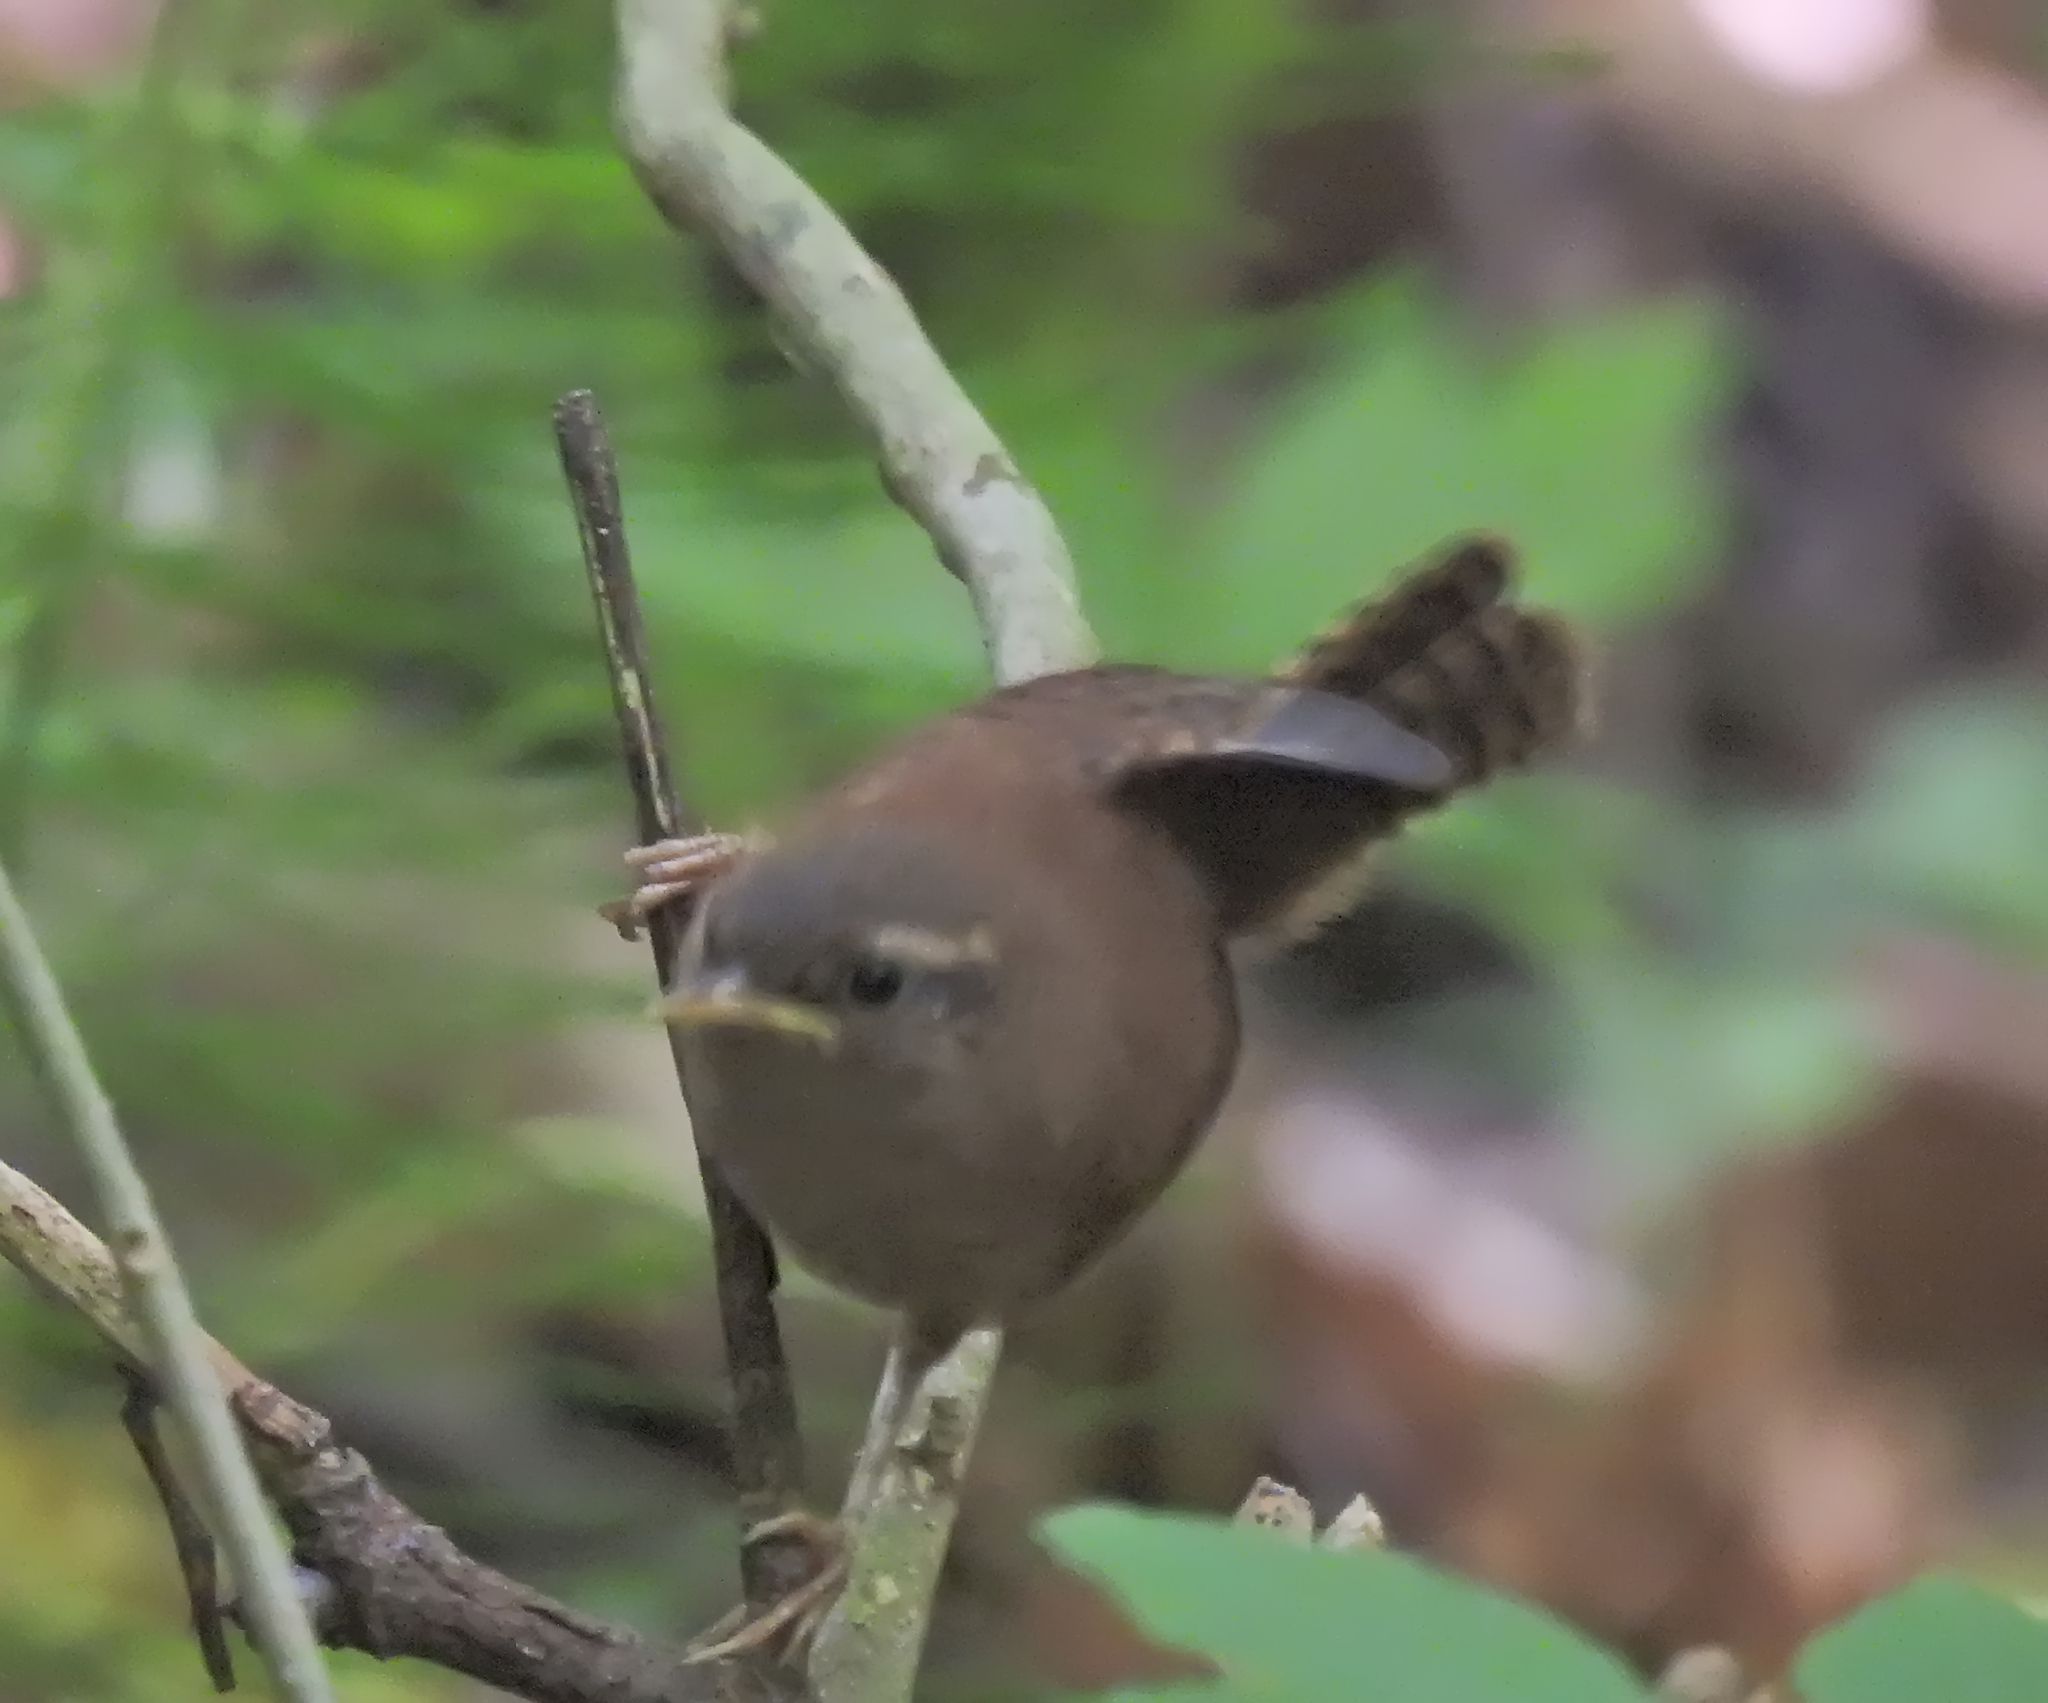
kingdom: Animalia
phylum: Chordata
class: Aves
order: Passeriformes
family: Troglodytidae
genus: Troglodytes
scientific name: Troglodytes troglodytes
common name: Eurasian wren
